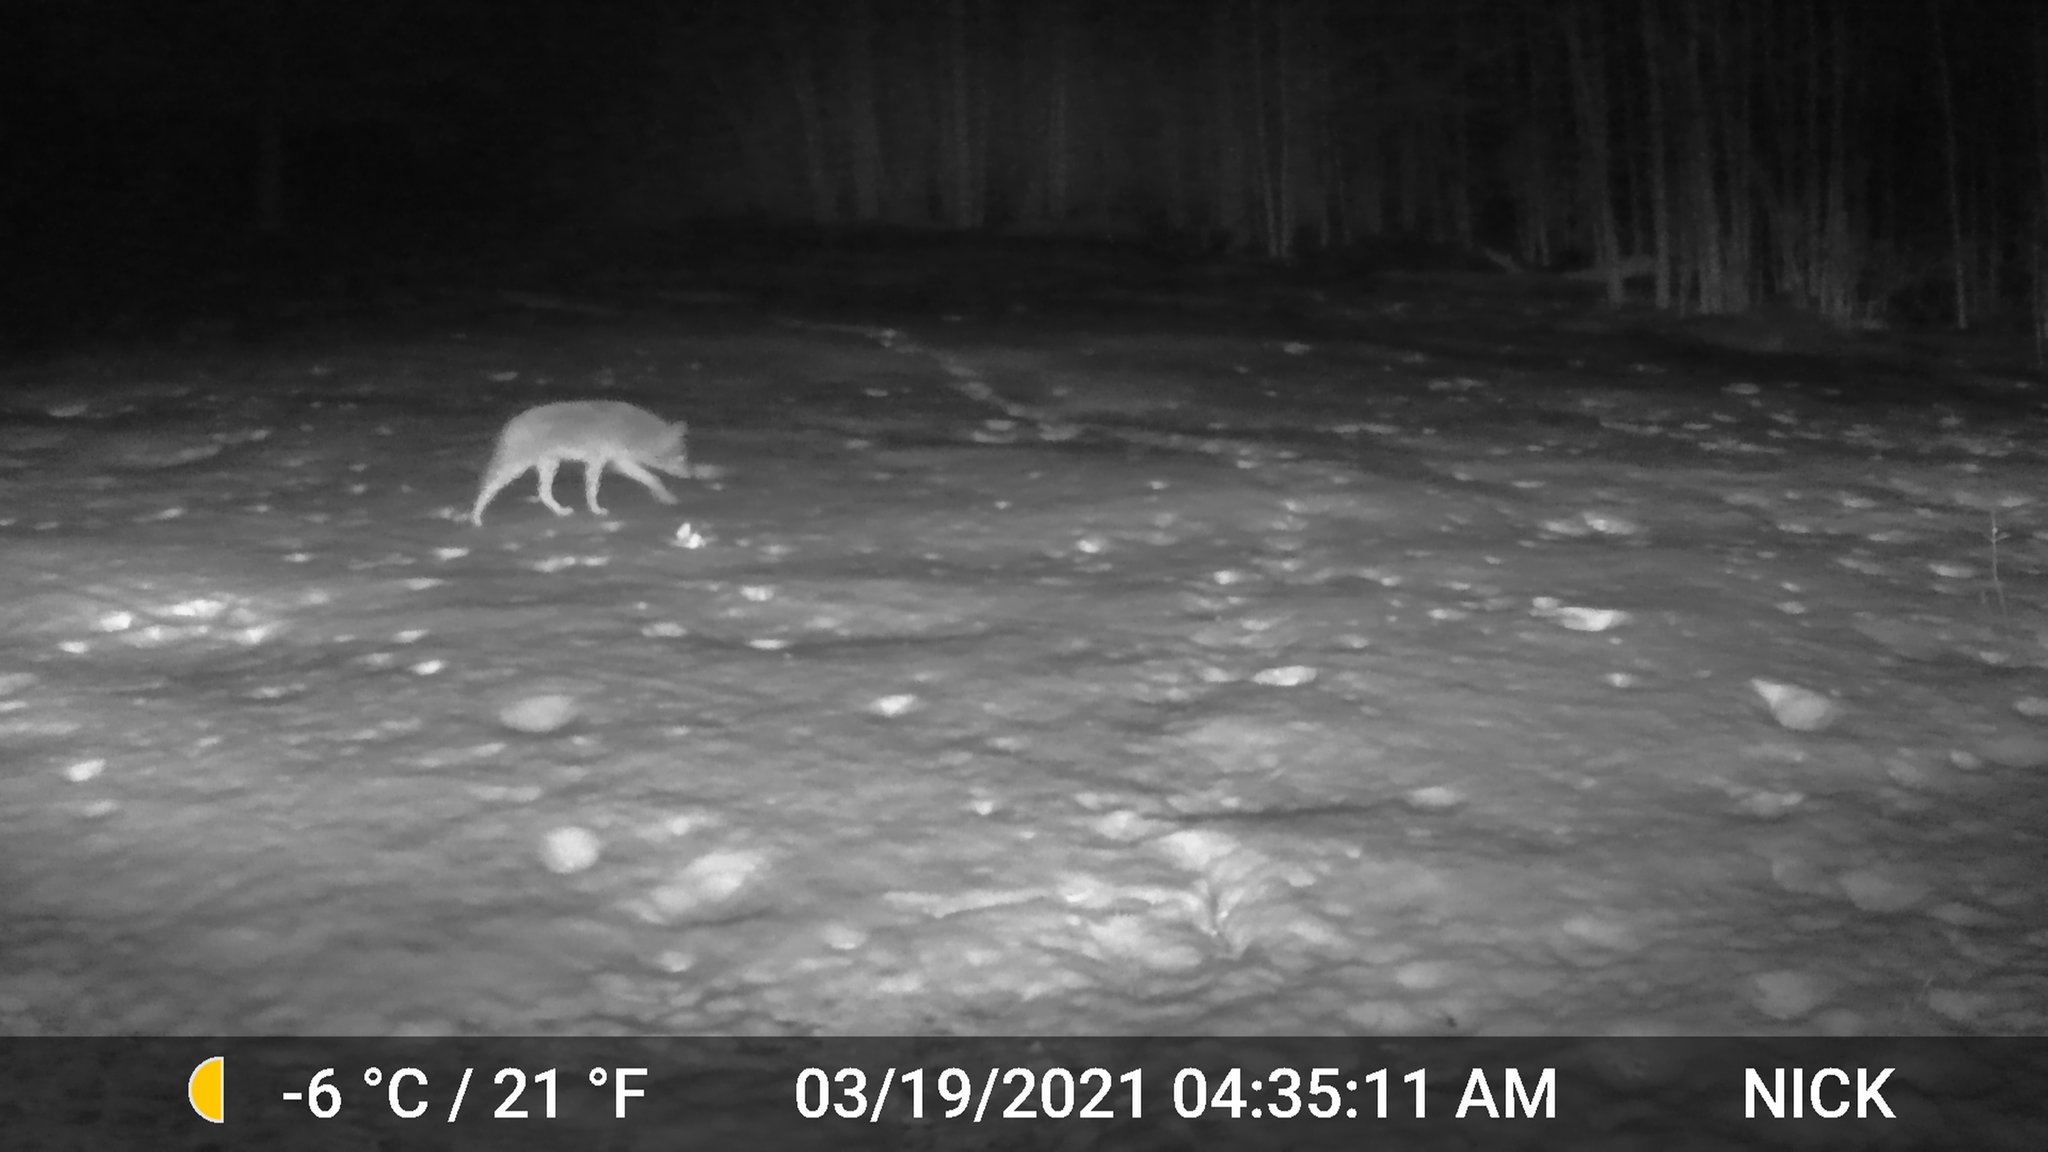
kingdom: Animalia
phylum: Chordata
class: Mammalia
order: Carnivora
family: Canidae
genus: Canis
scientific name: Canis latrans
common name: Coyote
